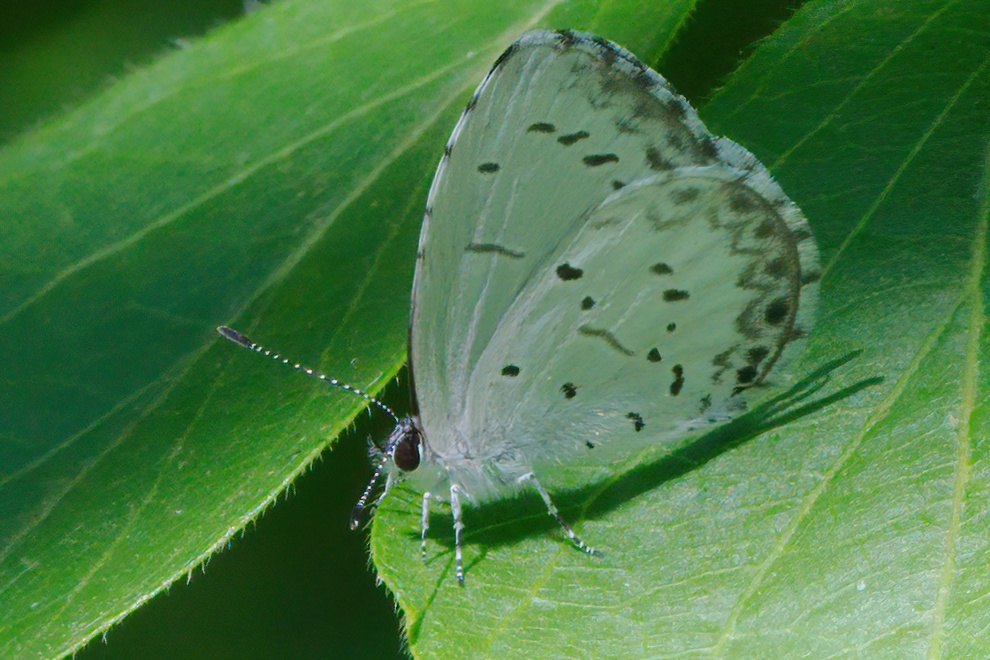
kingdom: Animalia
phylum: Arthropoda
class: Insecta
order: Lepidoptera
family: Lycaenidae
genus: Cyaniris
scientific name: Cyaniris neglecta
